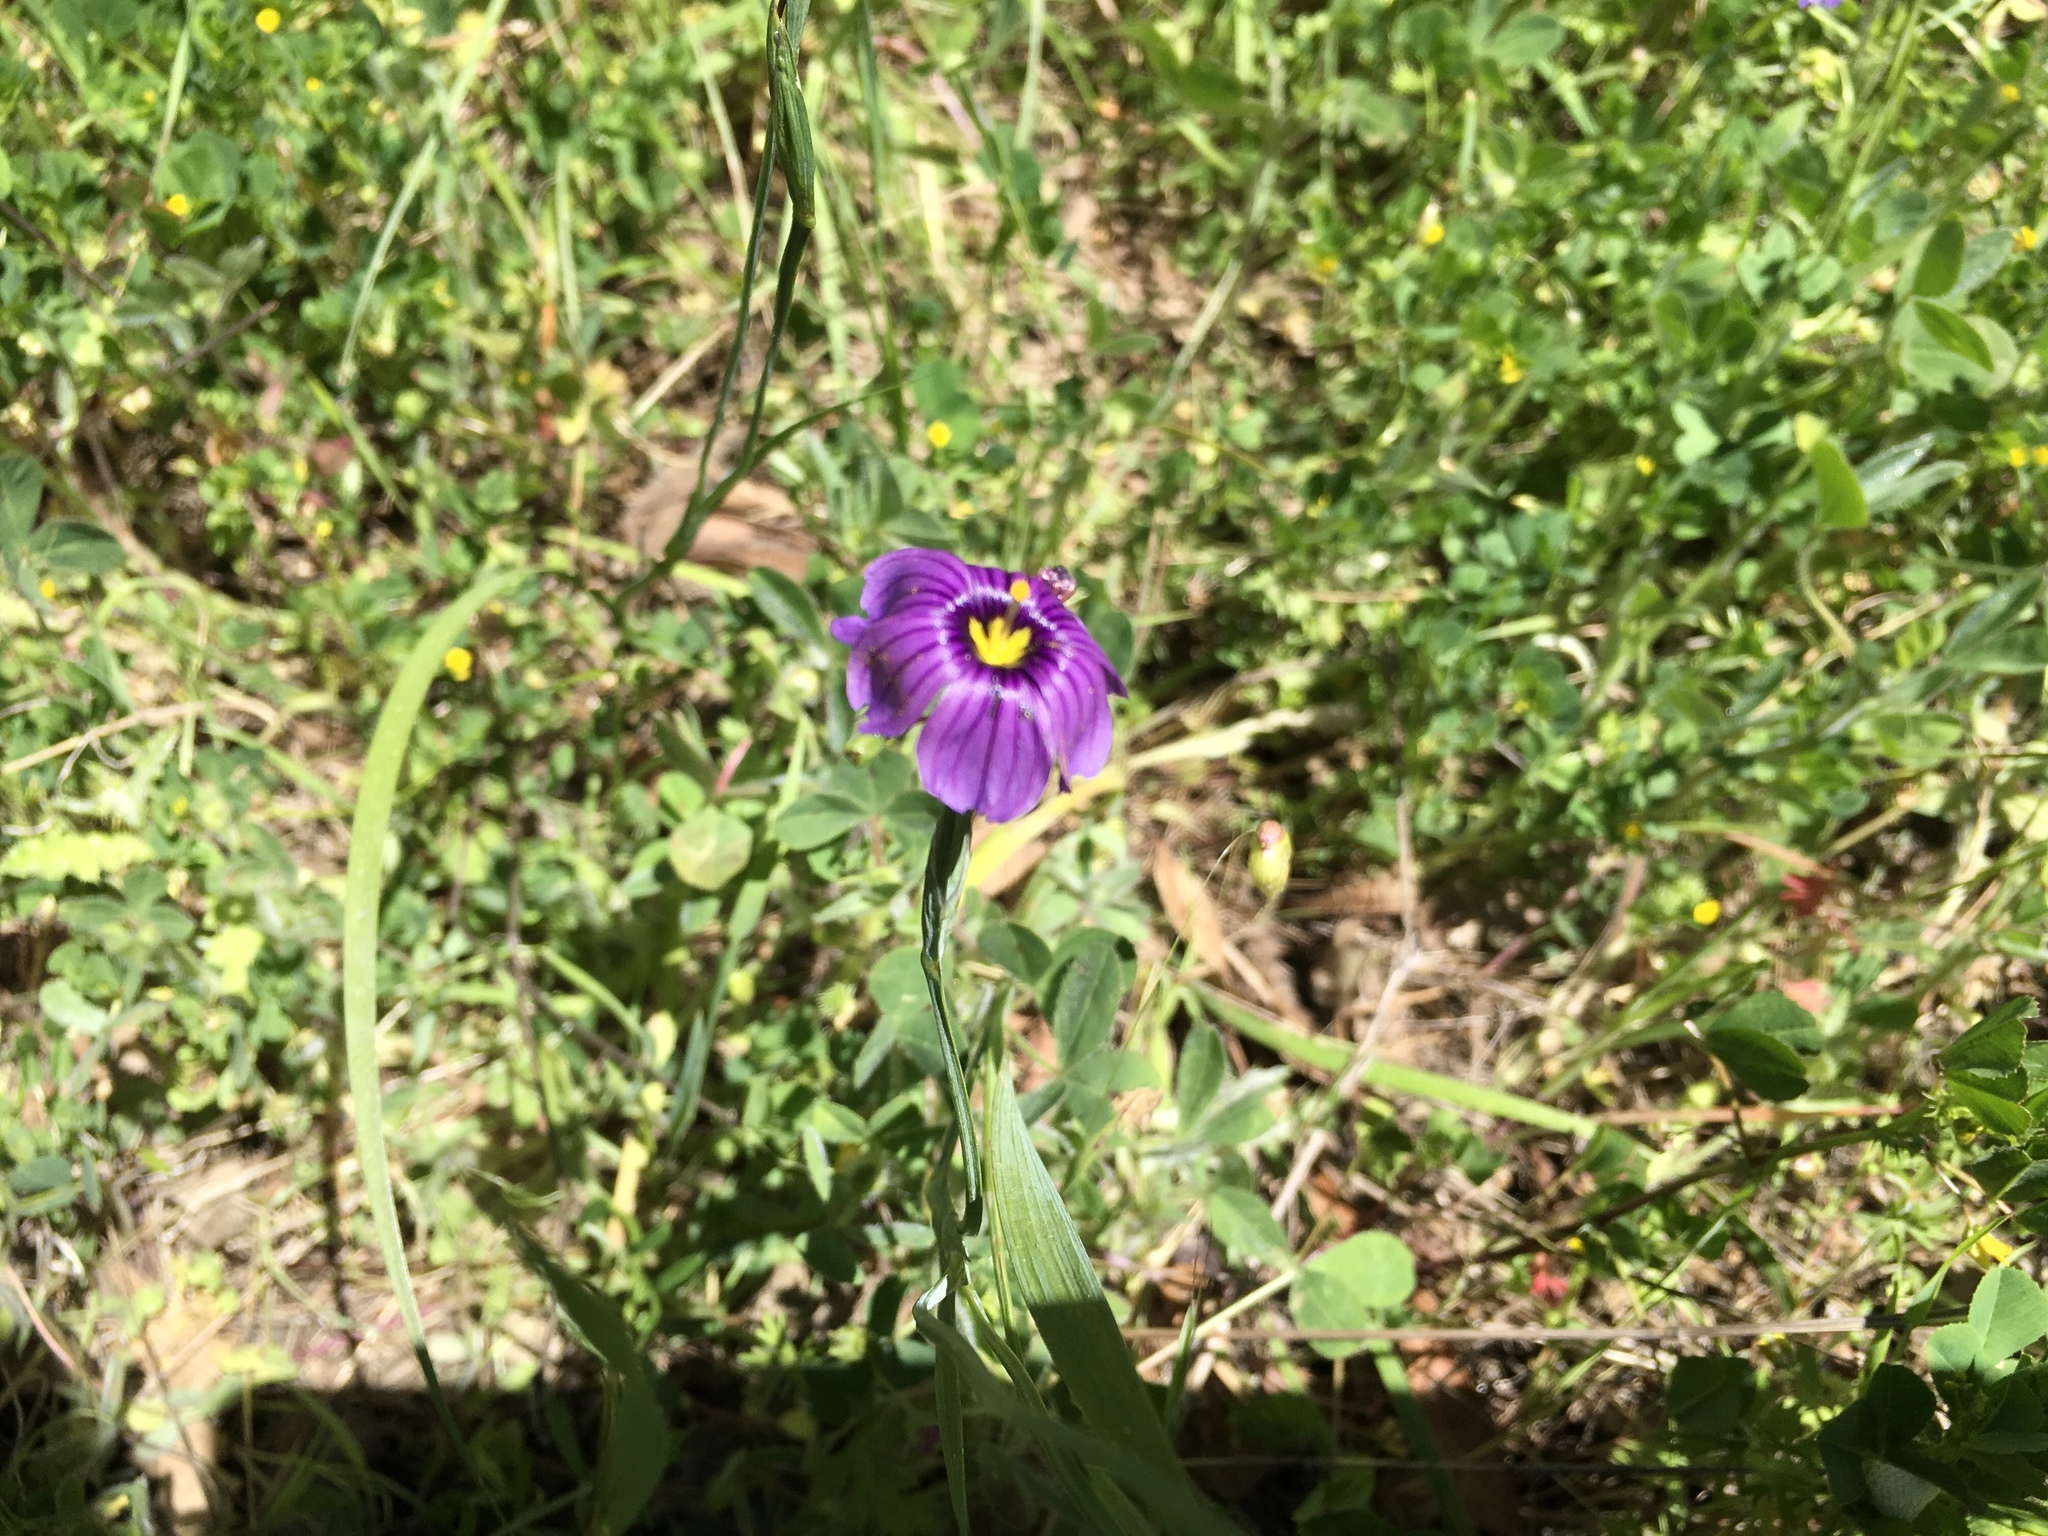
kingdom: Plantae
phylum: Tracheophyta
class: Liliopsida
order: Asparagales
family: Iridaceae
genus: Sisyrinchium
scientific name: Sisyrinchium bellum
